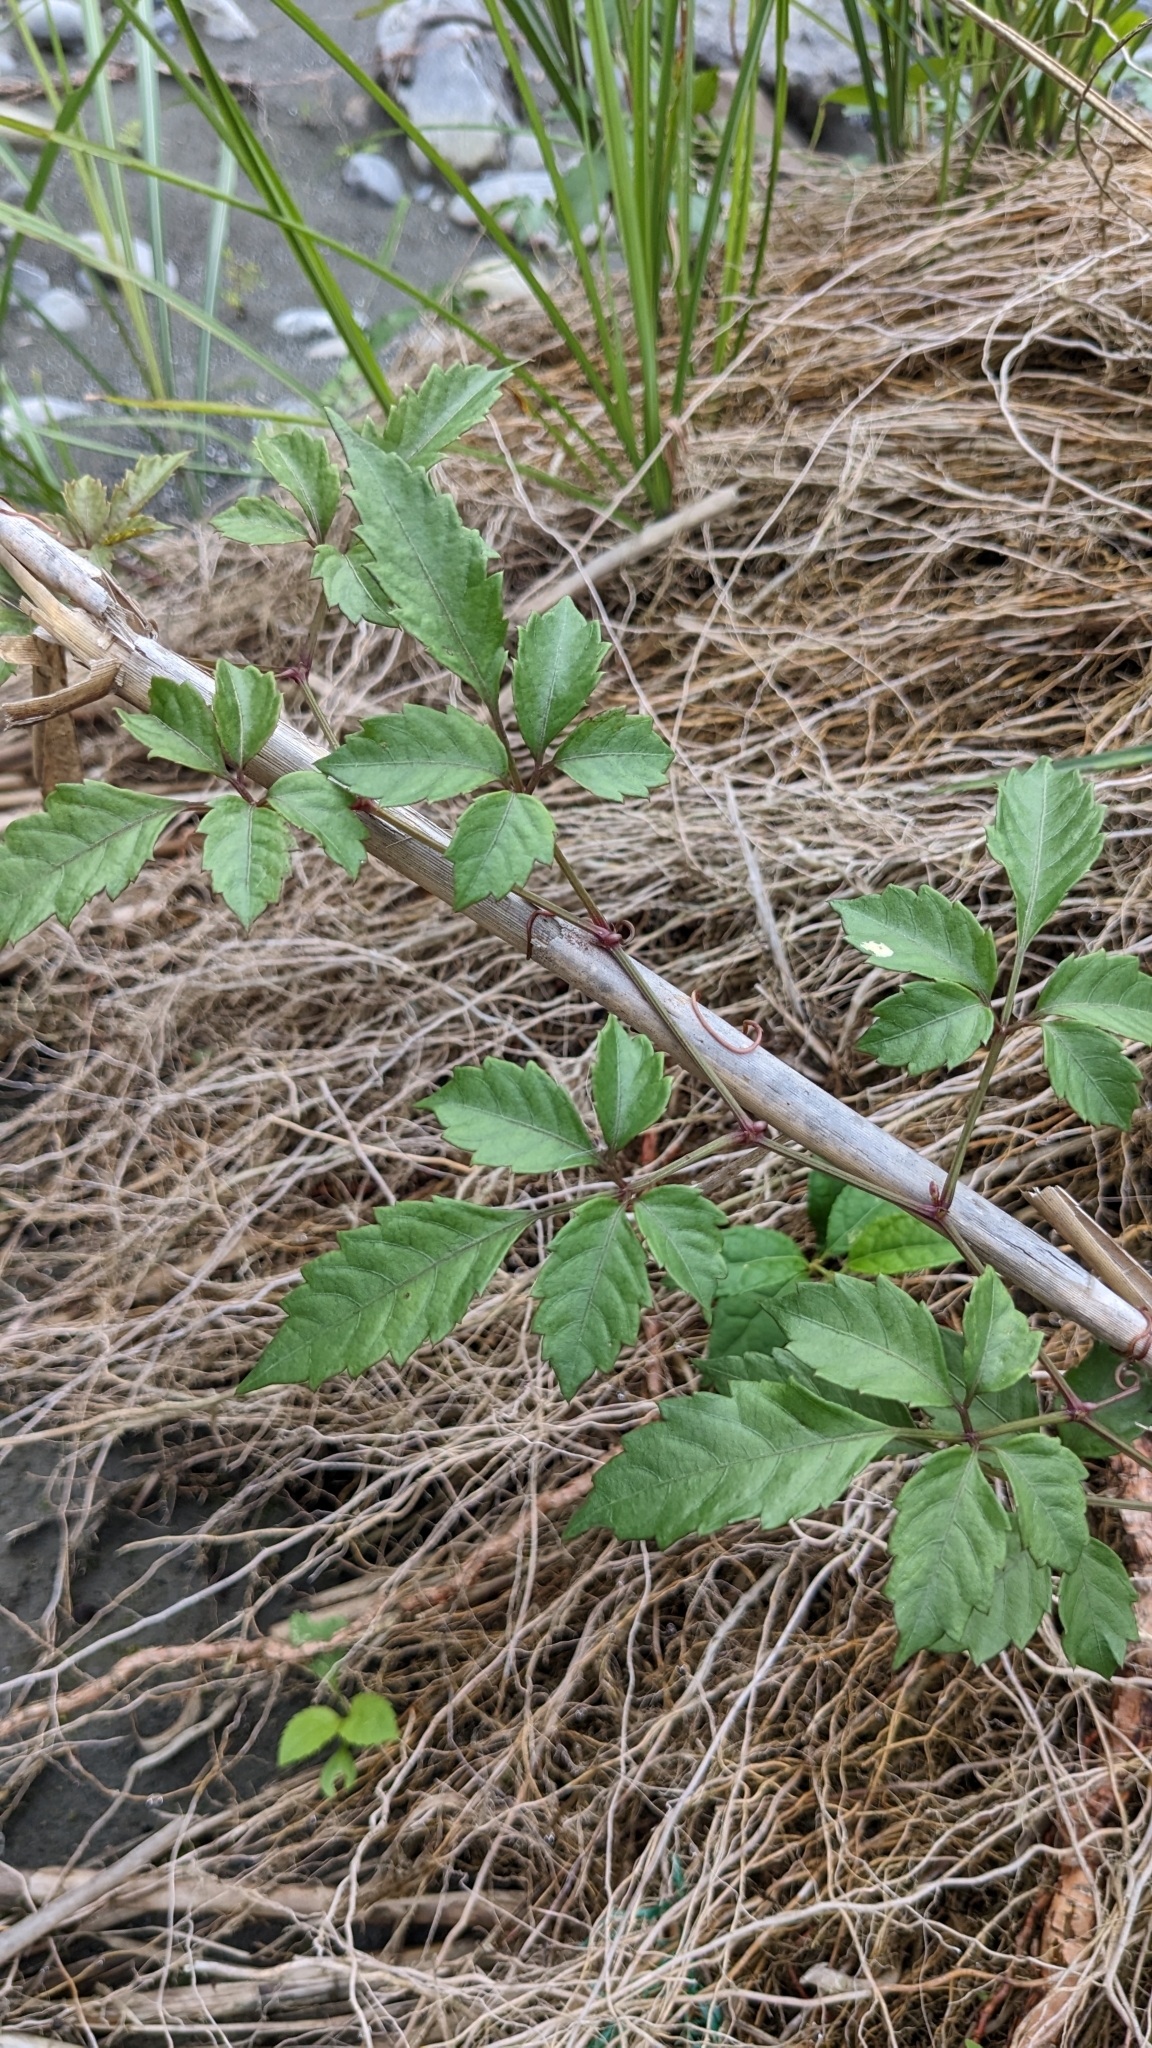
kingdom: Plantae
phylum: Tracheophyta
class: Magnoliopsida
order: Vitales
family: Vitaceae
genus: Causonis
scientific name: Causonis japonica
